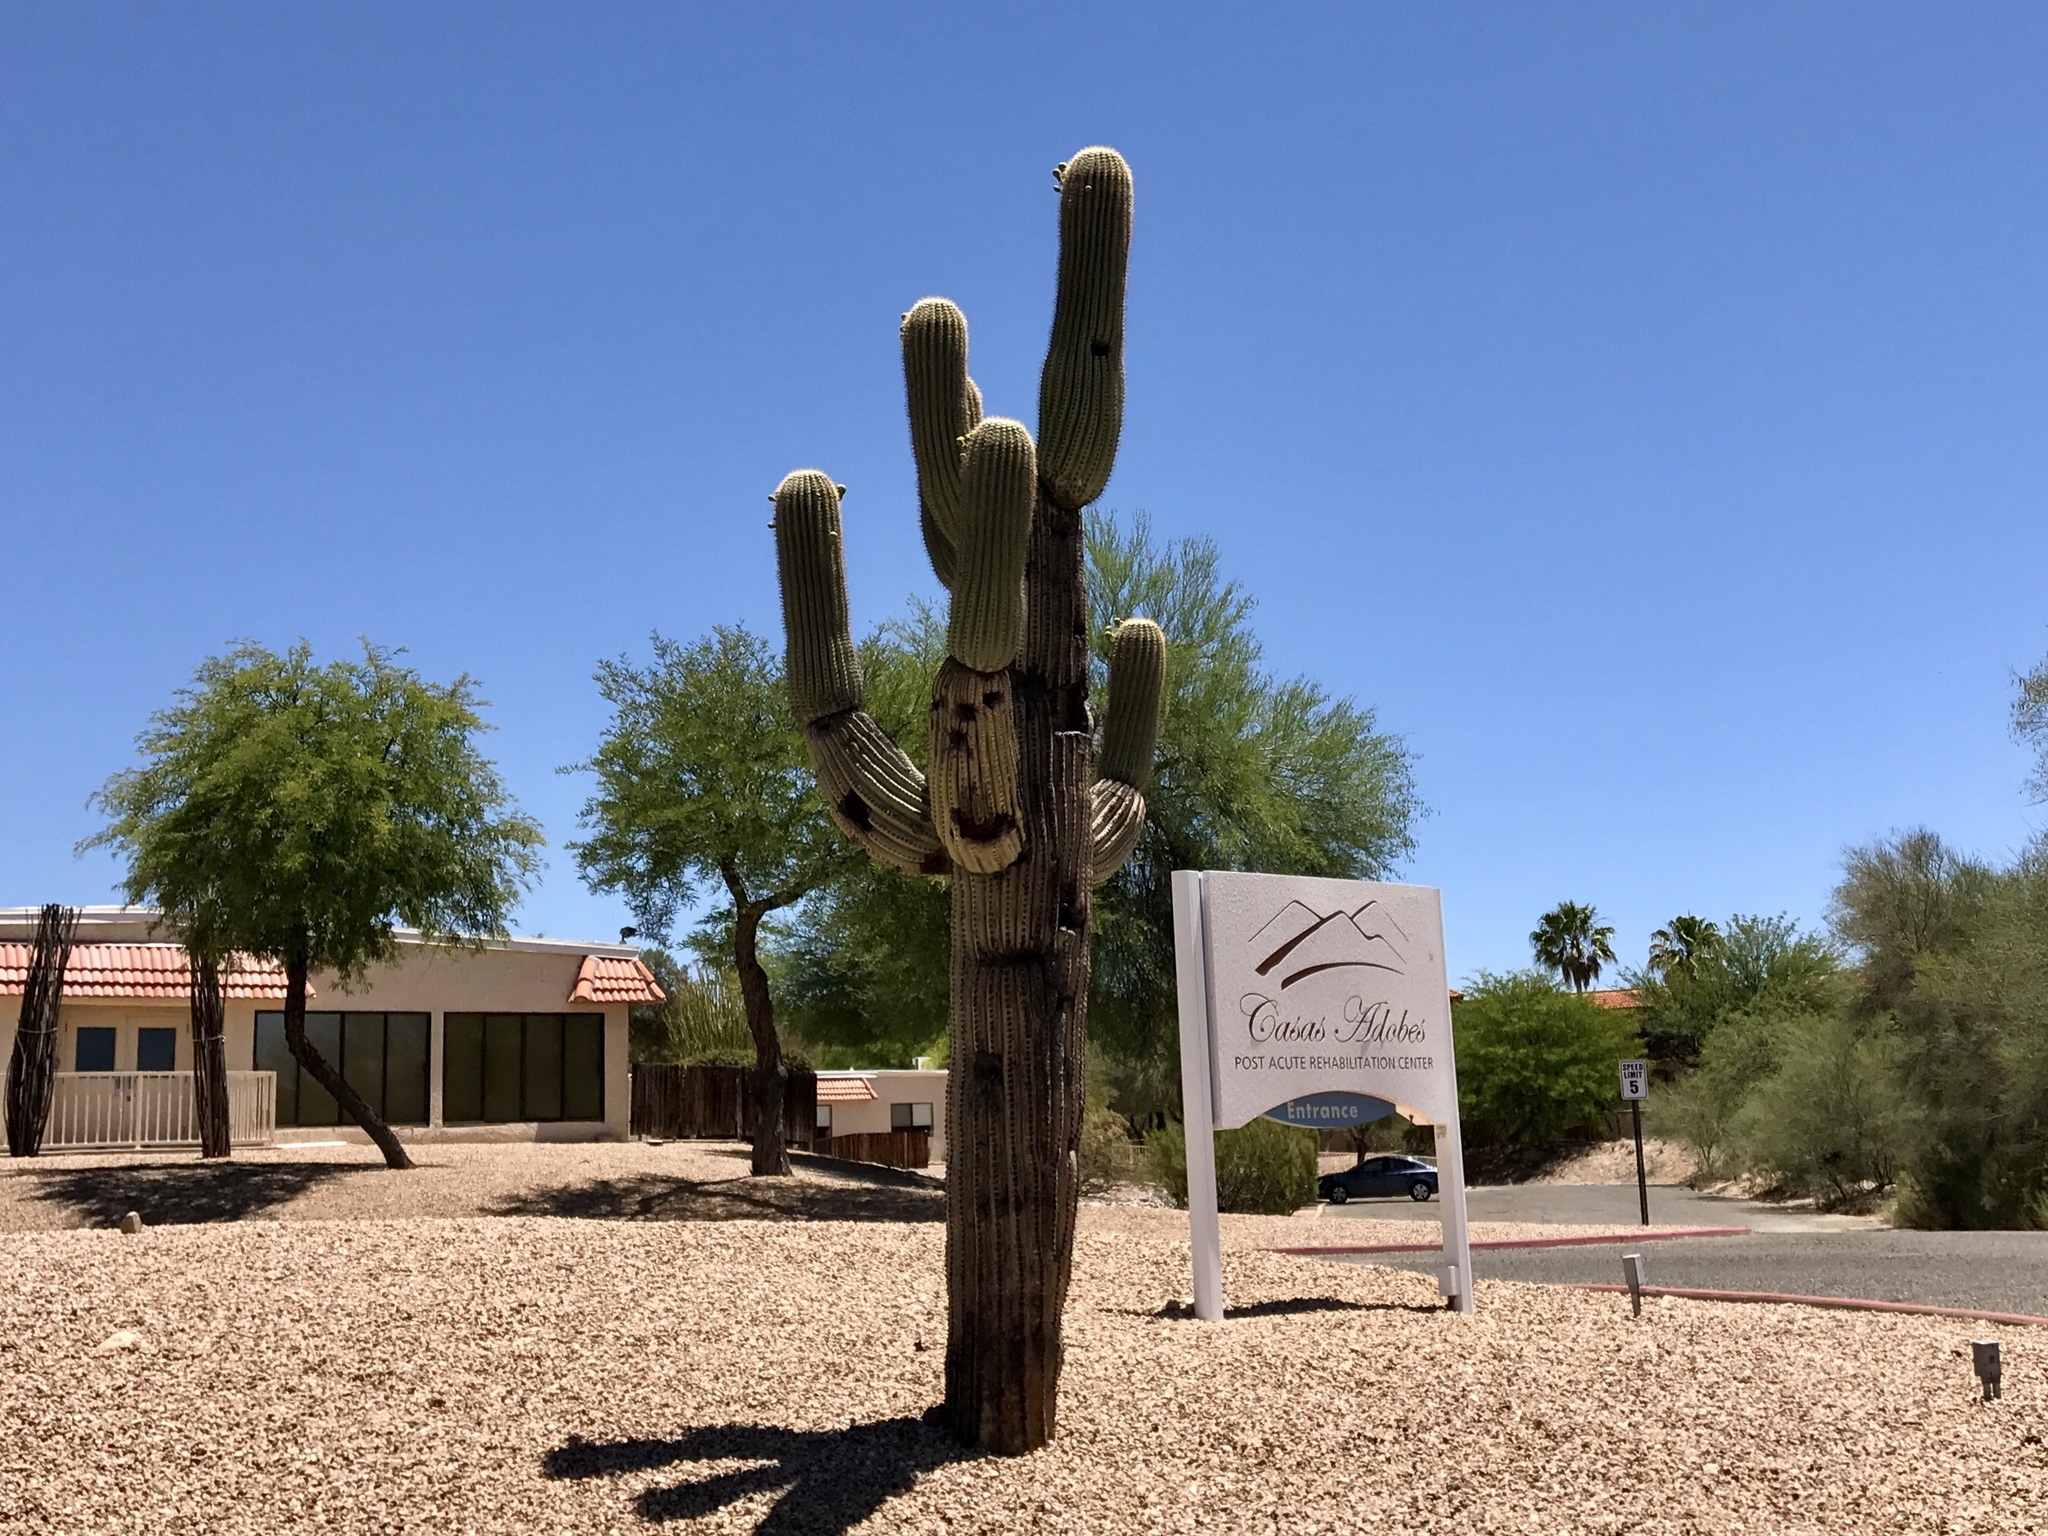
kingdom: Plantae
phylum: Tracheophyta
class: Magnoliopsida
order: Caryophyllales
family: Cactaceae
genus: Carnegiea
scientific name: Carnegiea gigantea
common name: Saguaro
